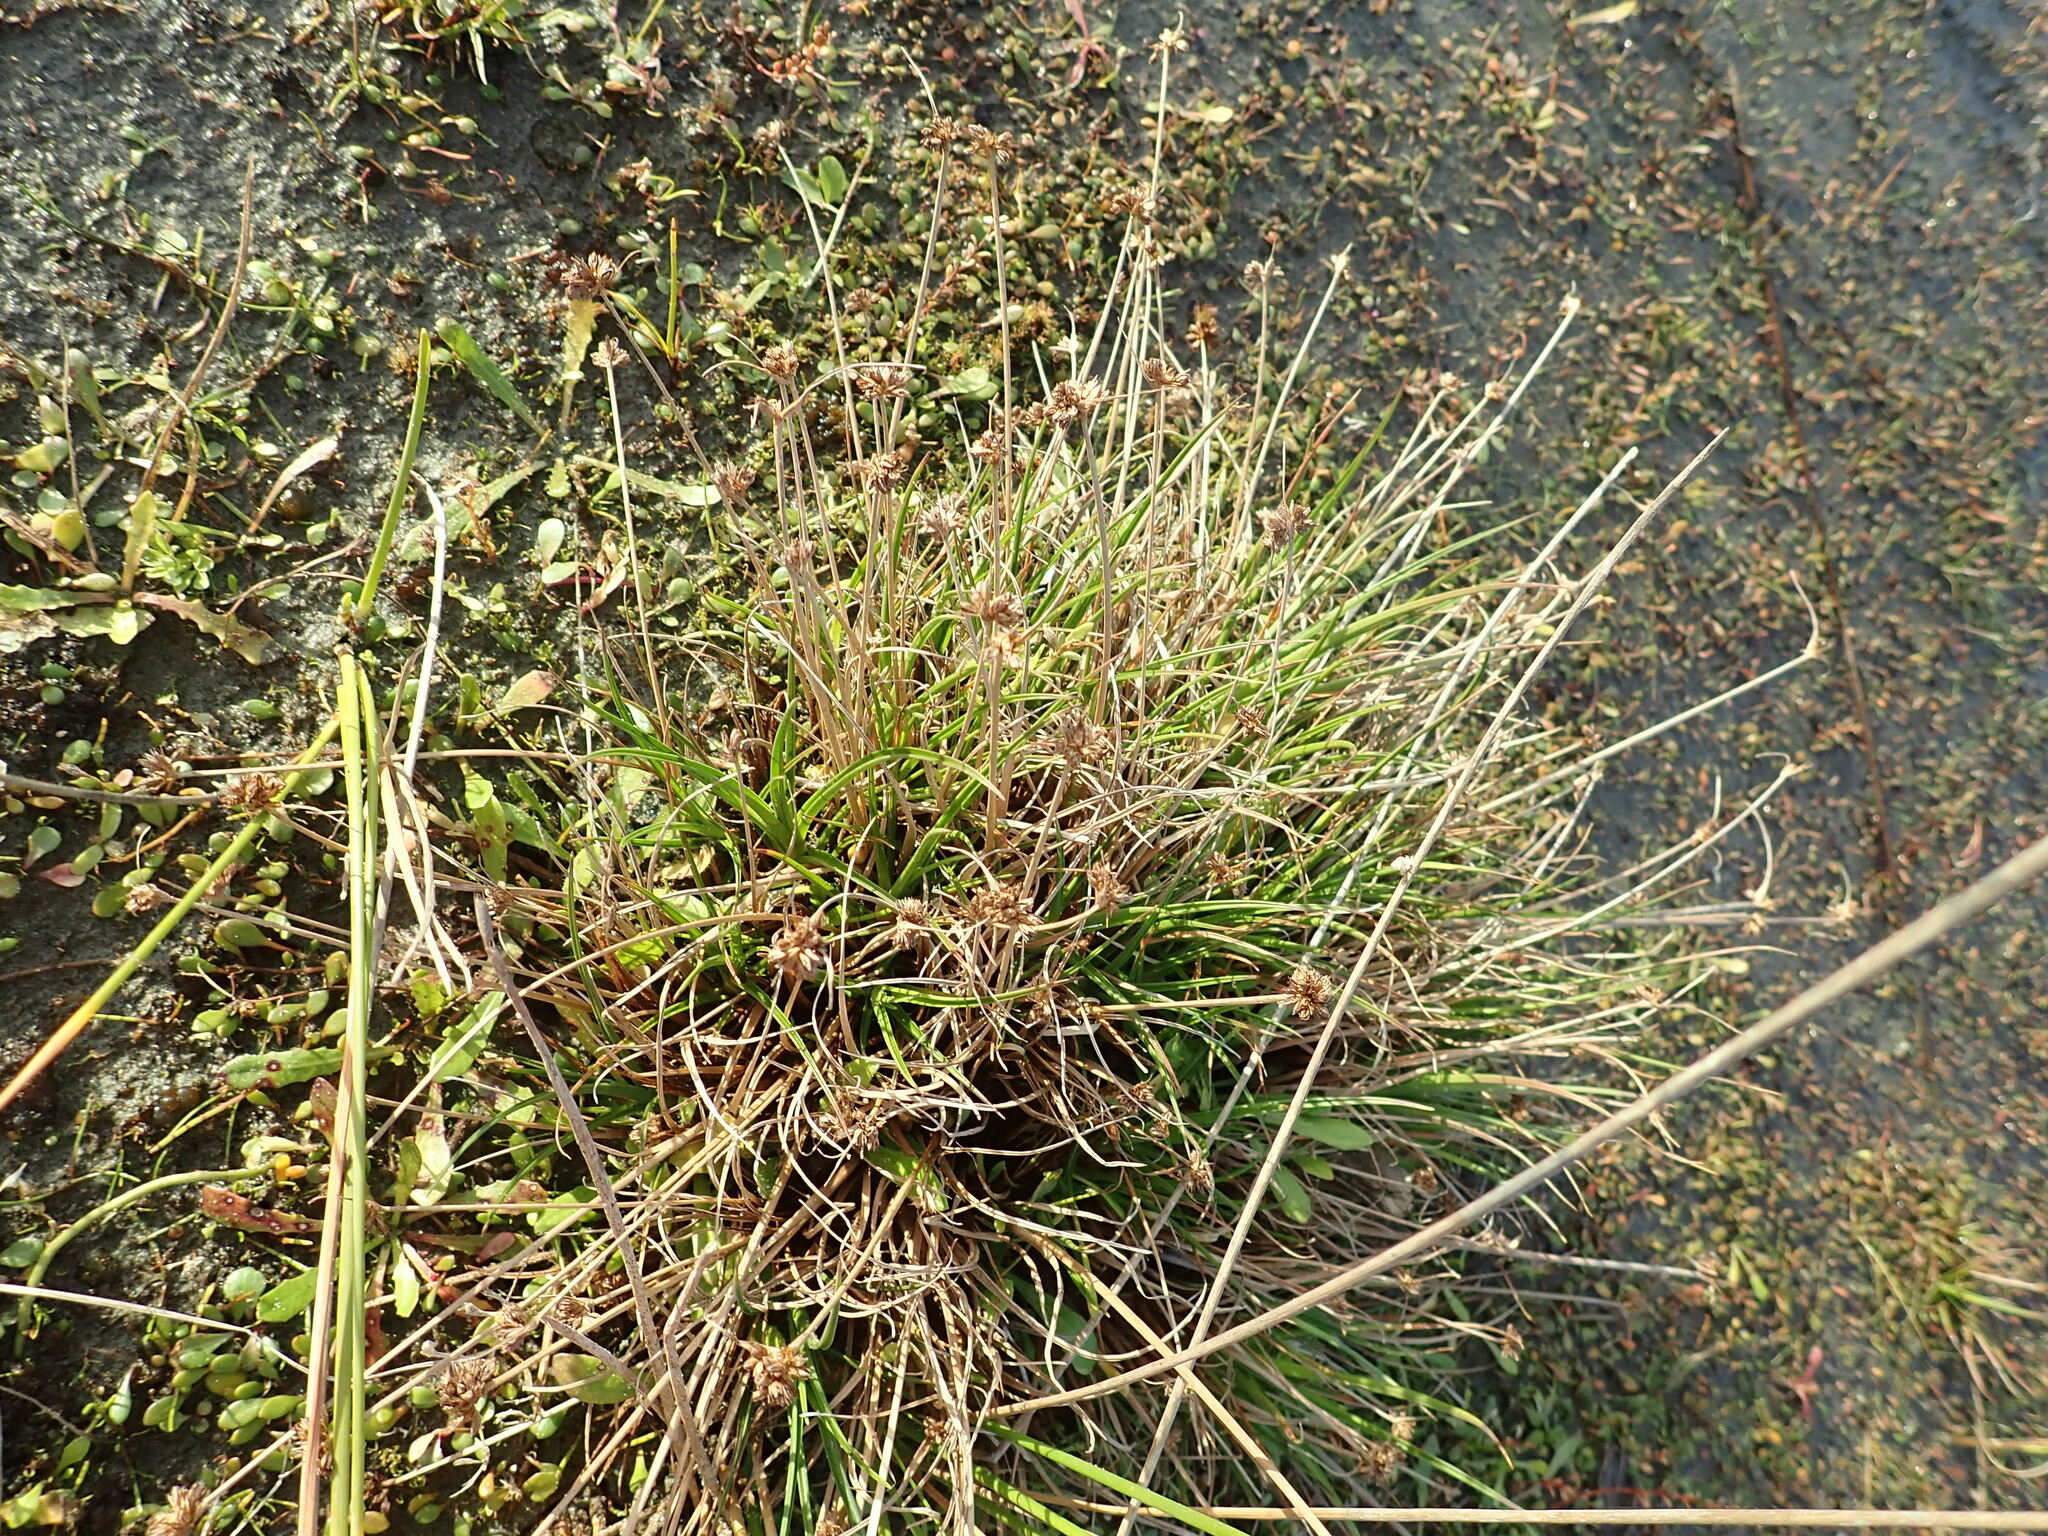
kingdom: Plantae
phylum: Tracheophyta
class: Liliopsida
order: Poales
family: Juncaceae
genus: Juncus
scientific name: Juncus caespiticius
